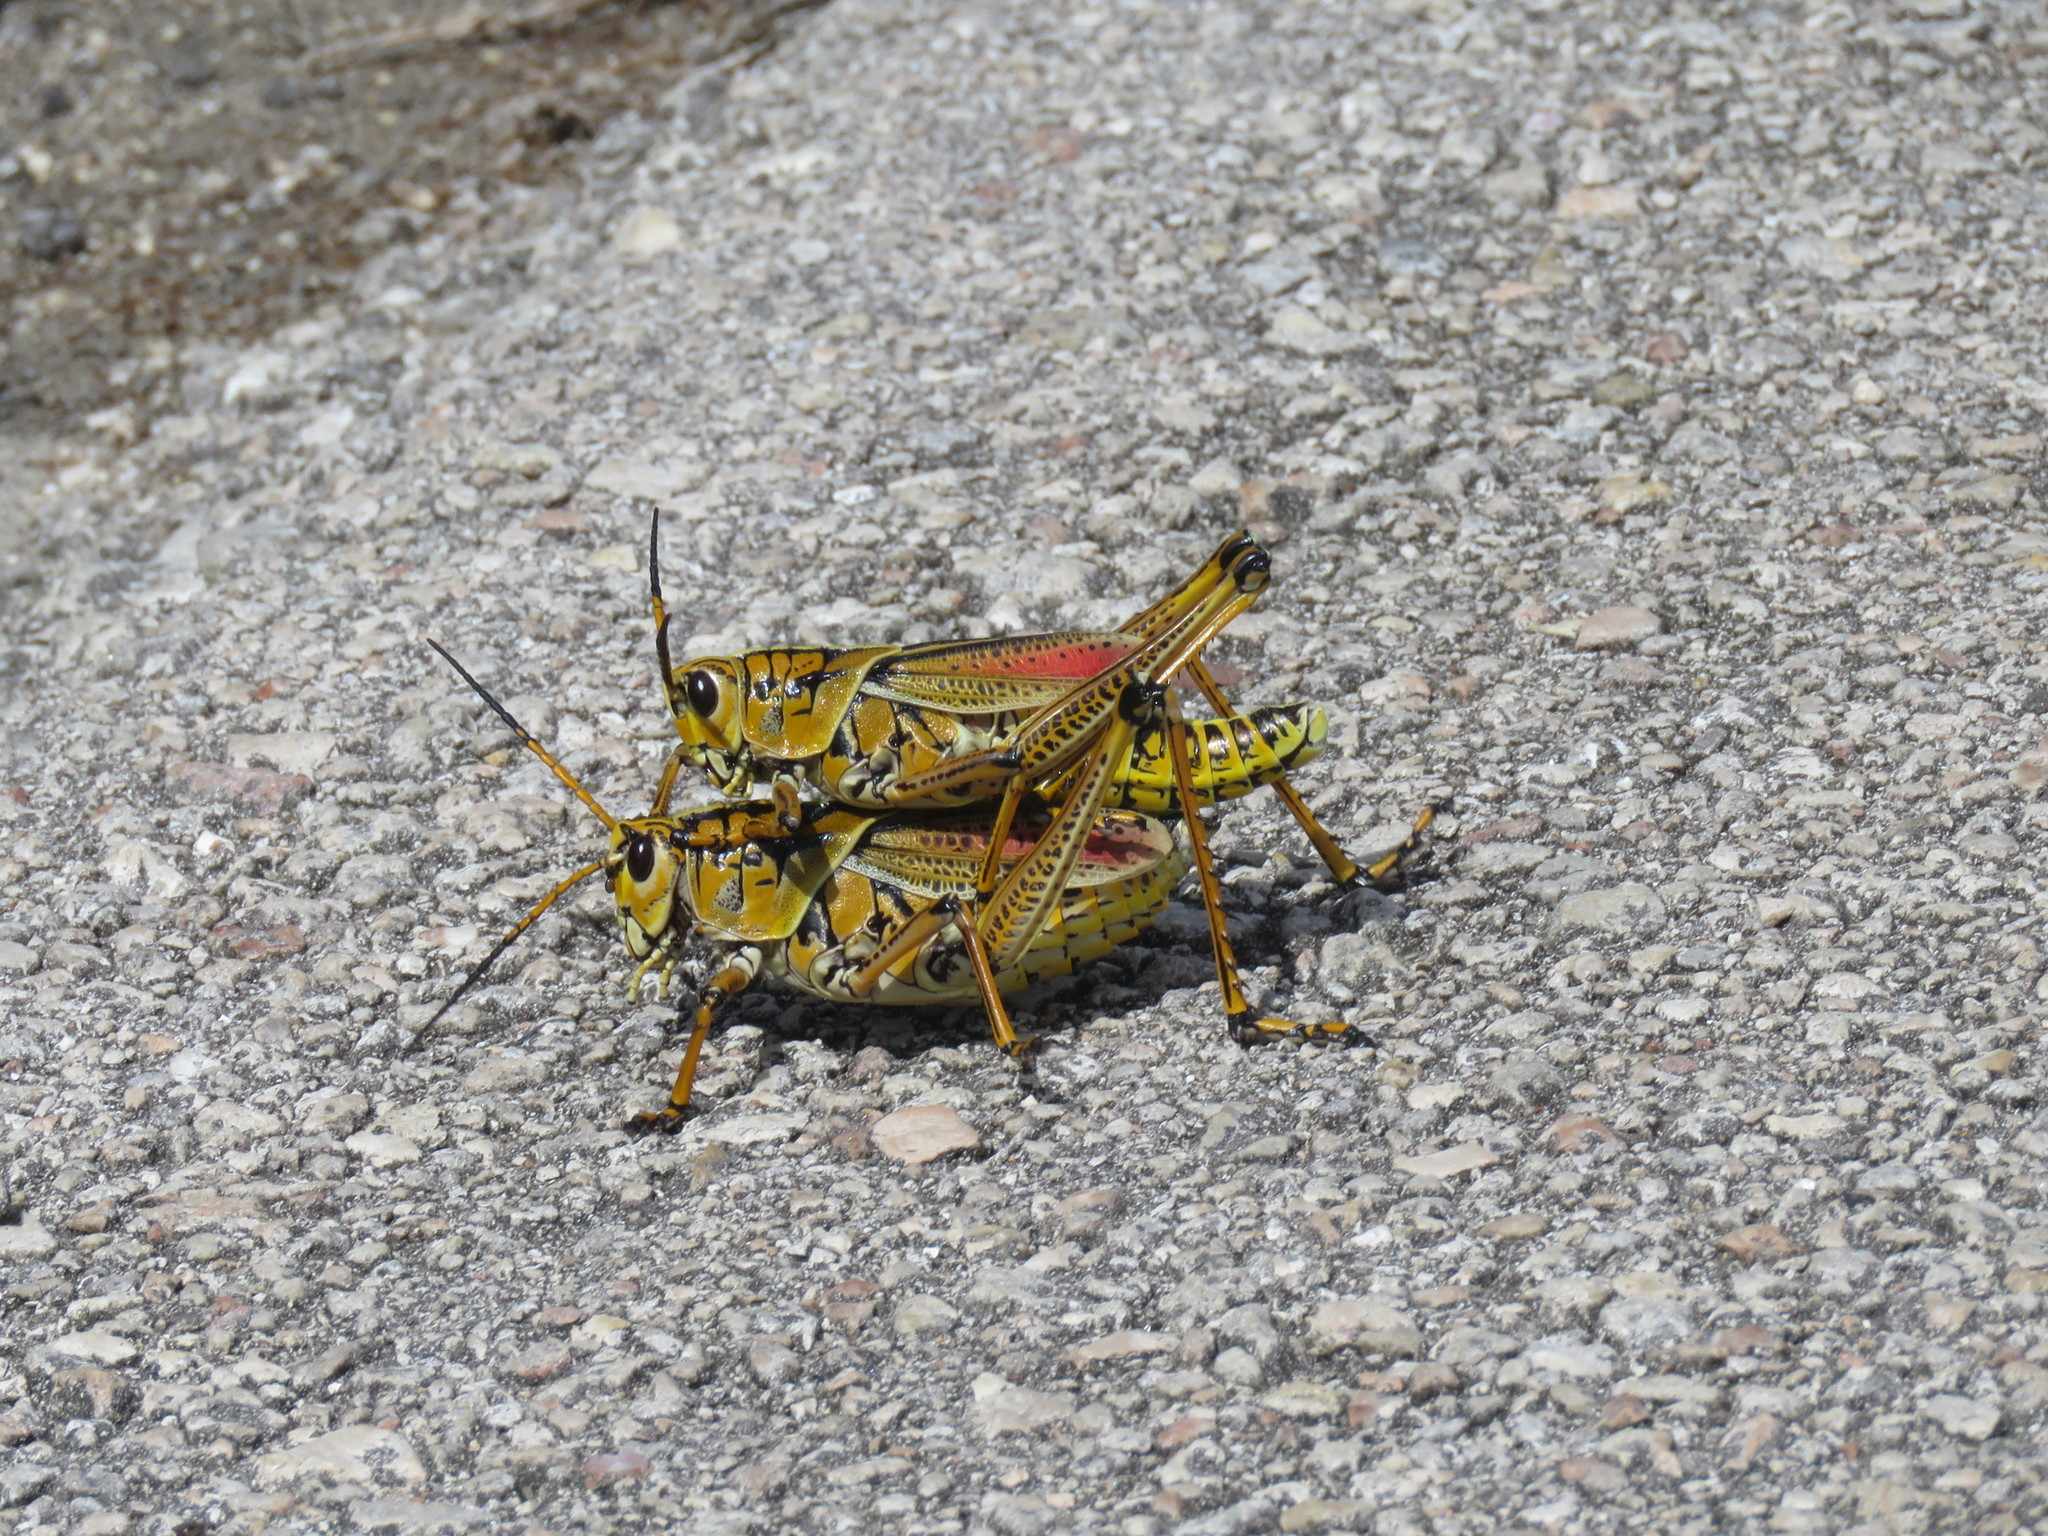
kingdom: Animalia
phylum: Arthropoda
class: Insecta
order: Orthoptera
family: Romaleidae
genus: Romalea
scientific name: Romalea microptera
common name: Eastern lubber grasshopper
